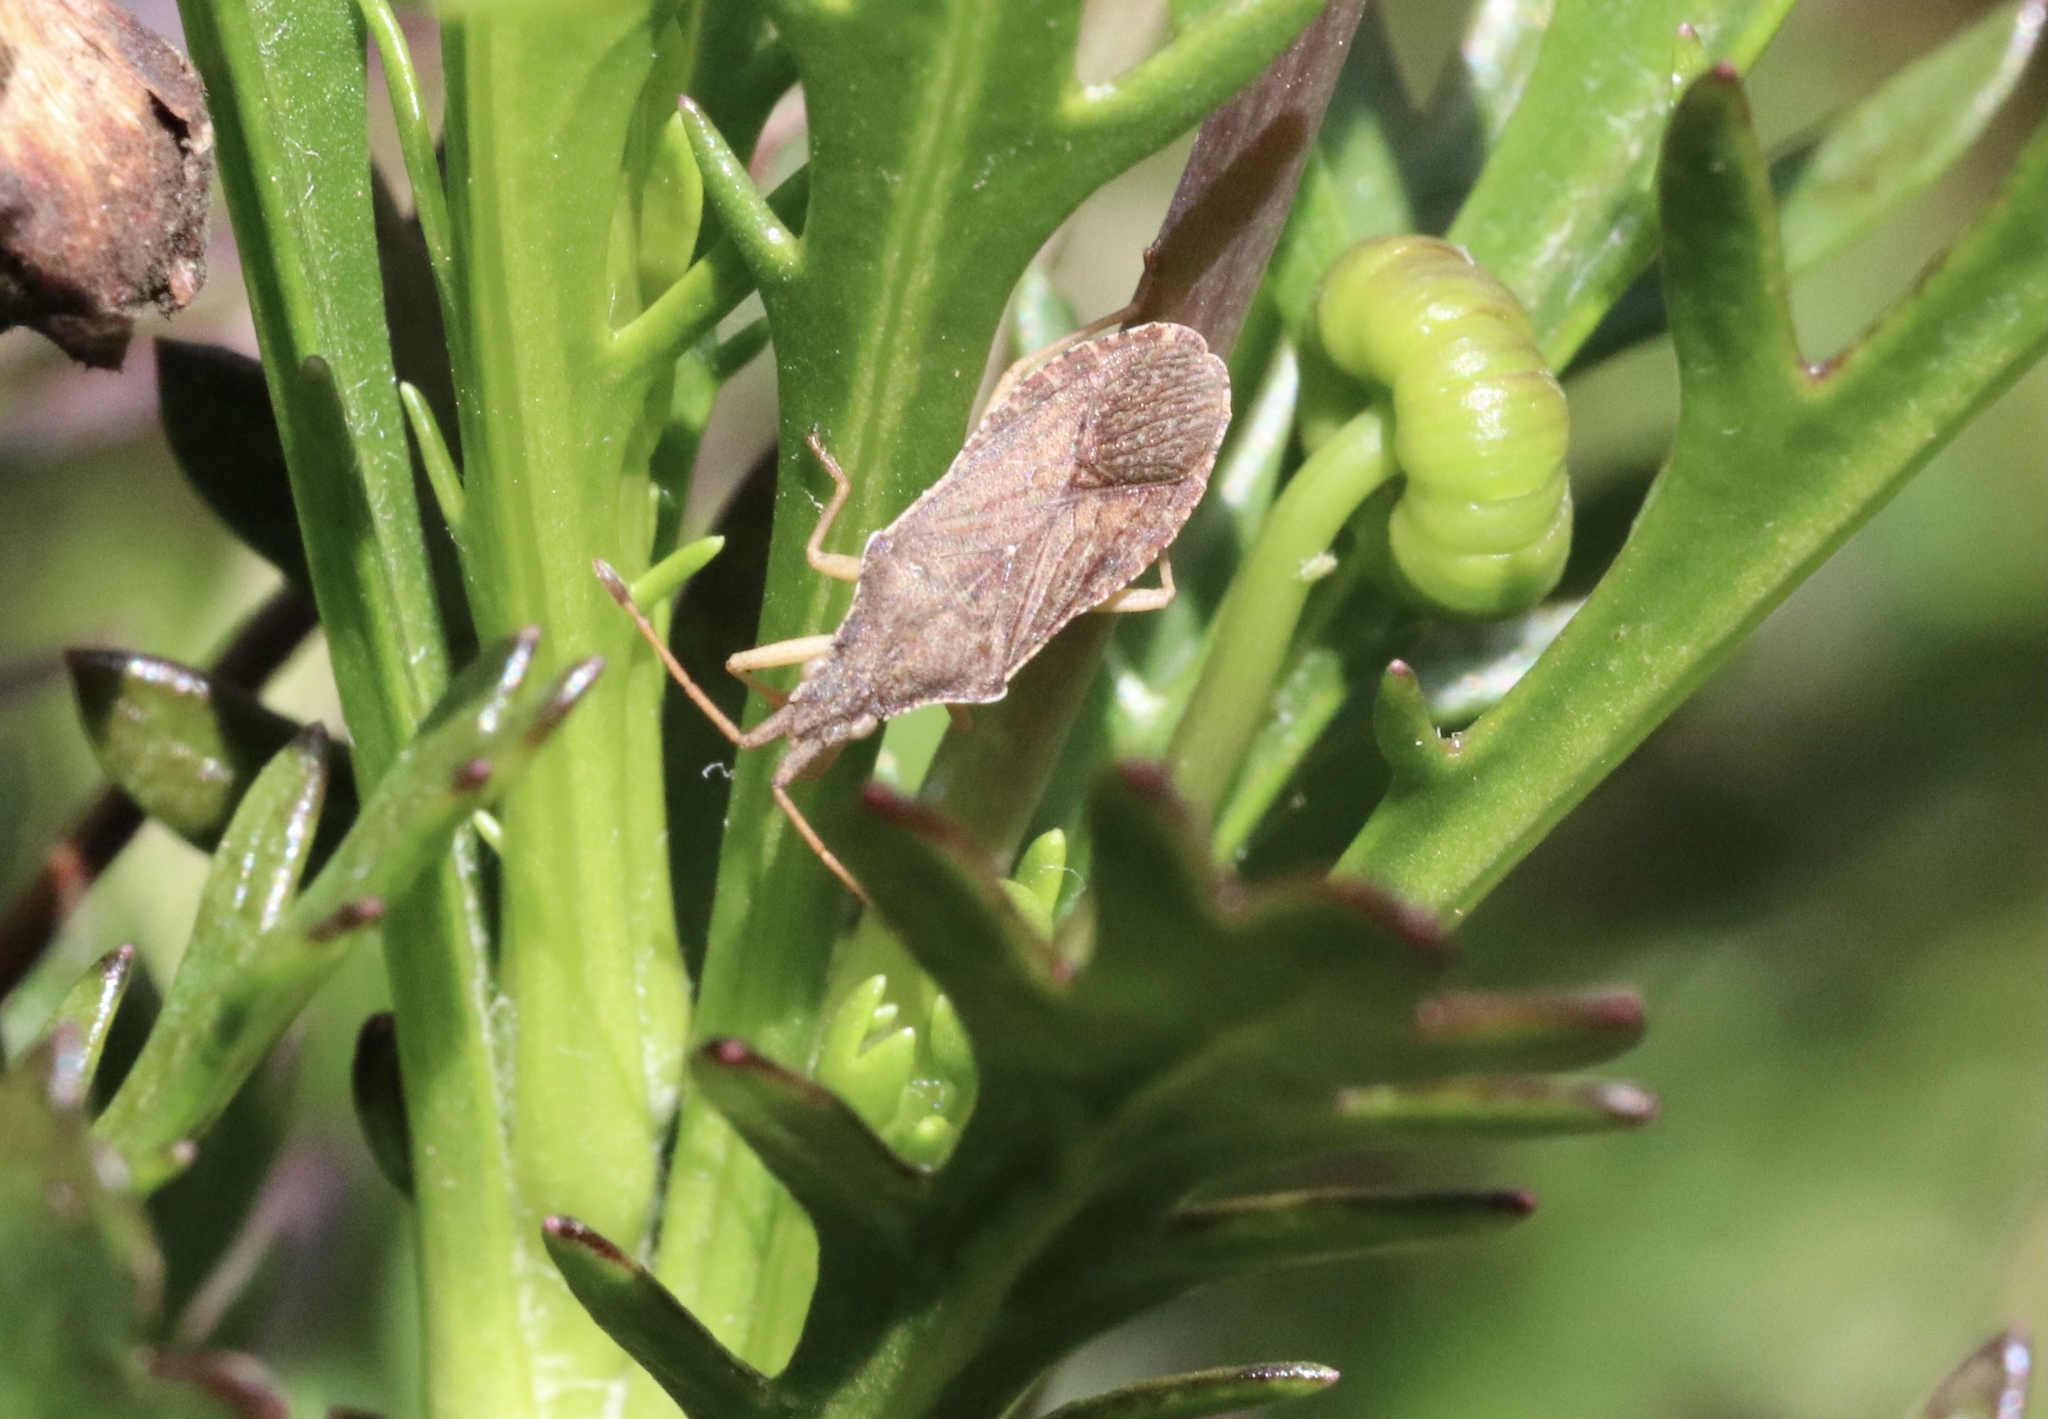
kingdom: Animalia
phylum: Arthropoda
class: Insecta
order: Hemiptera
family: Coreidae
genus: Althos
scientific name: Althos sinuaticollis
